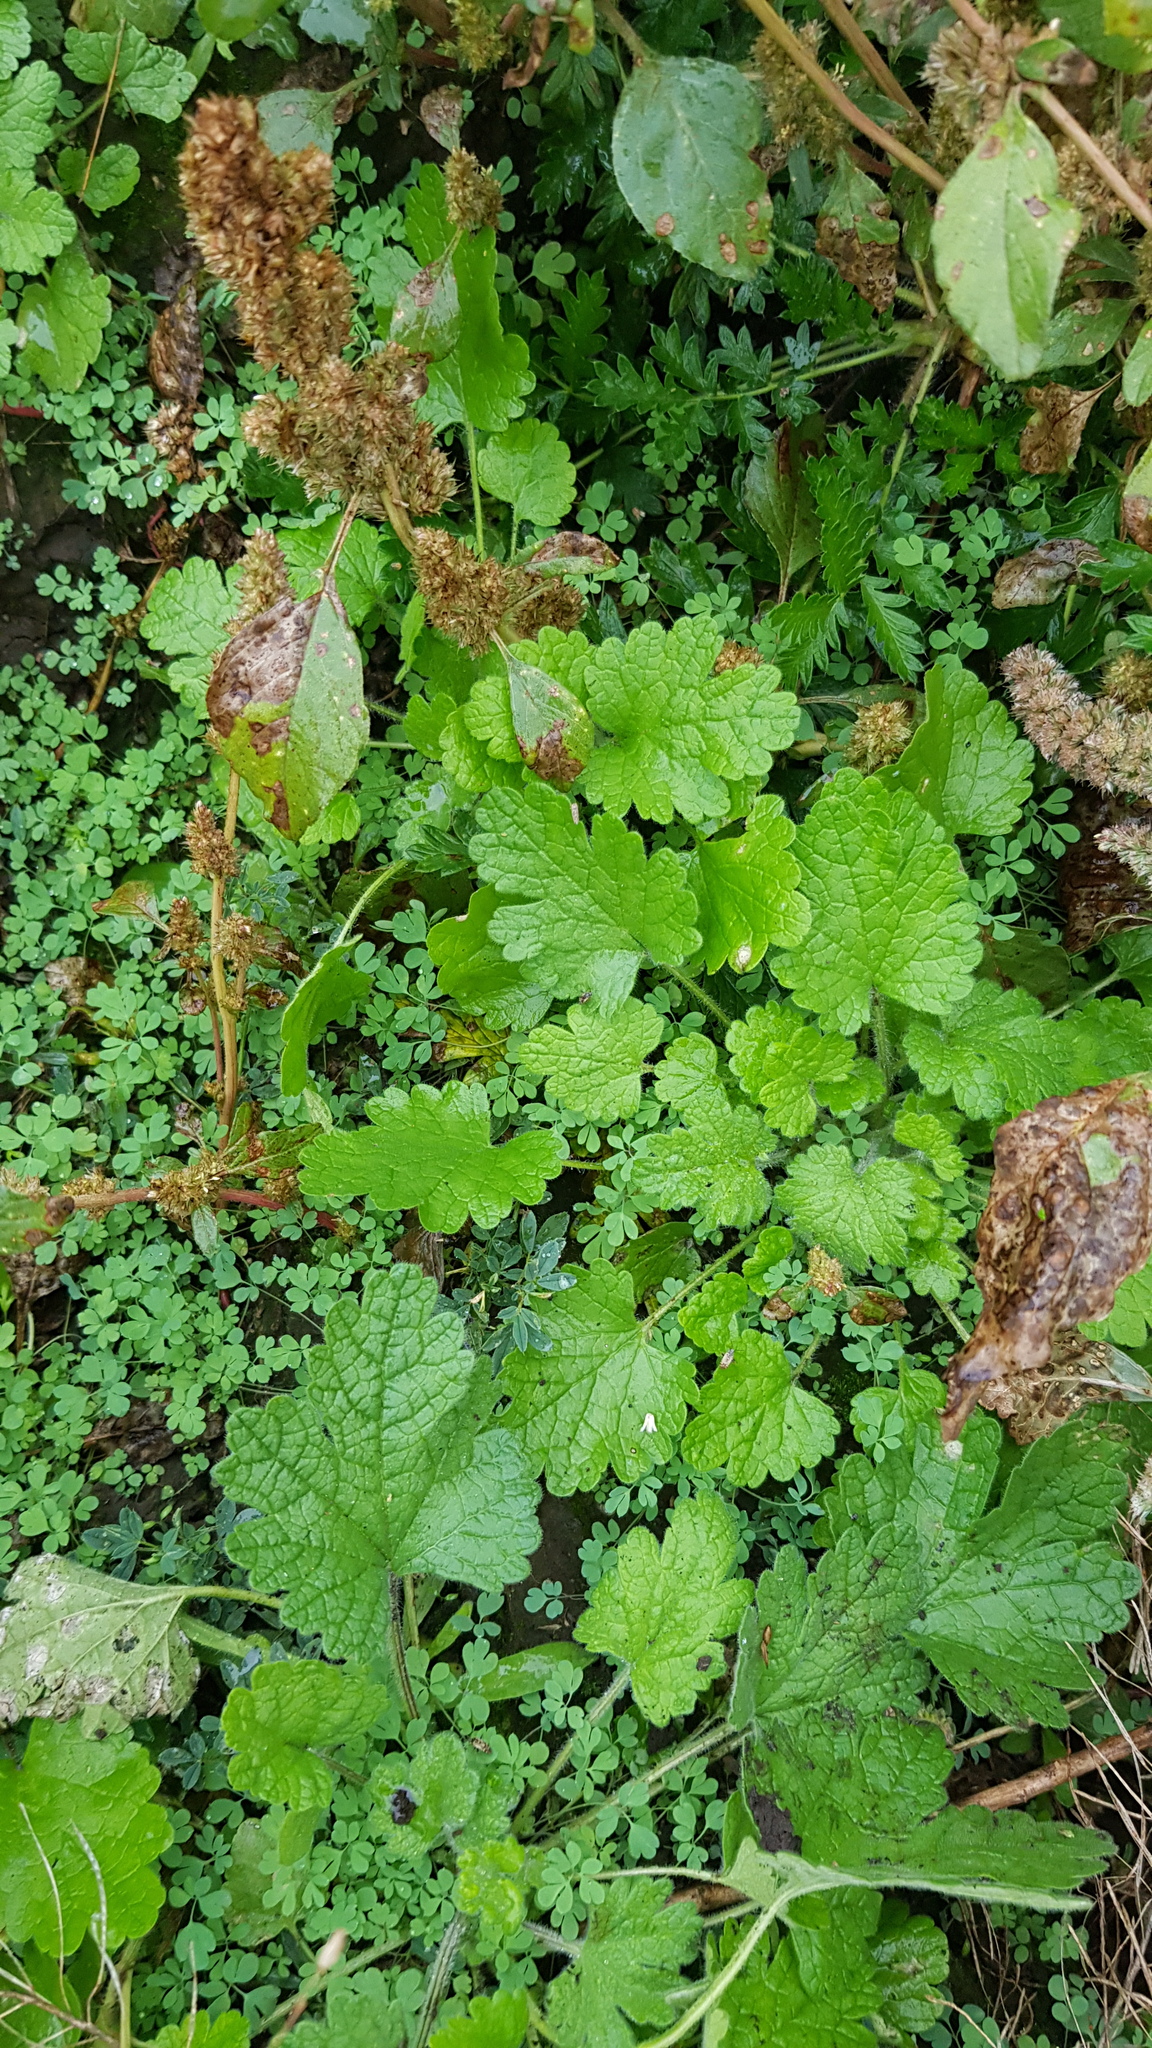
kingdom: Plantae
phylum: Tracheophyta
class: Magnoliopsida
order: Lamiales
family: Lamiaceae
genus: Lagopsis
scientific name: Lagopsis supina
